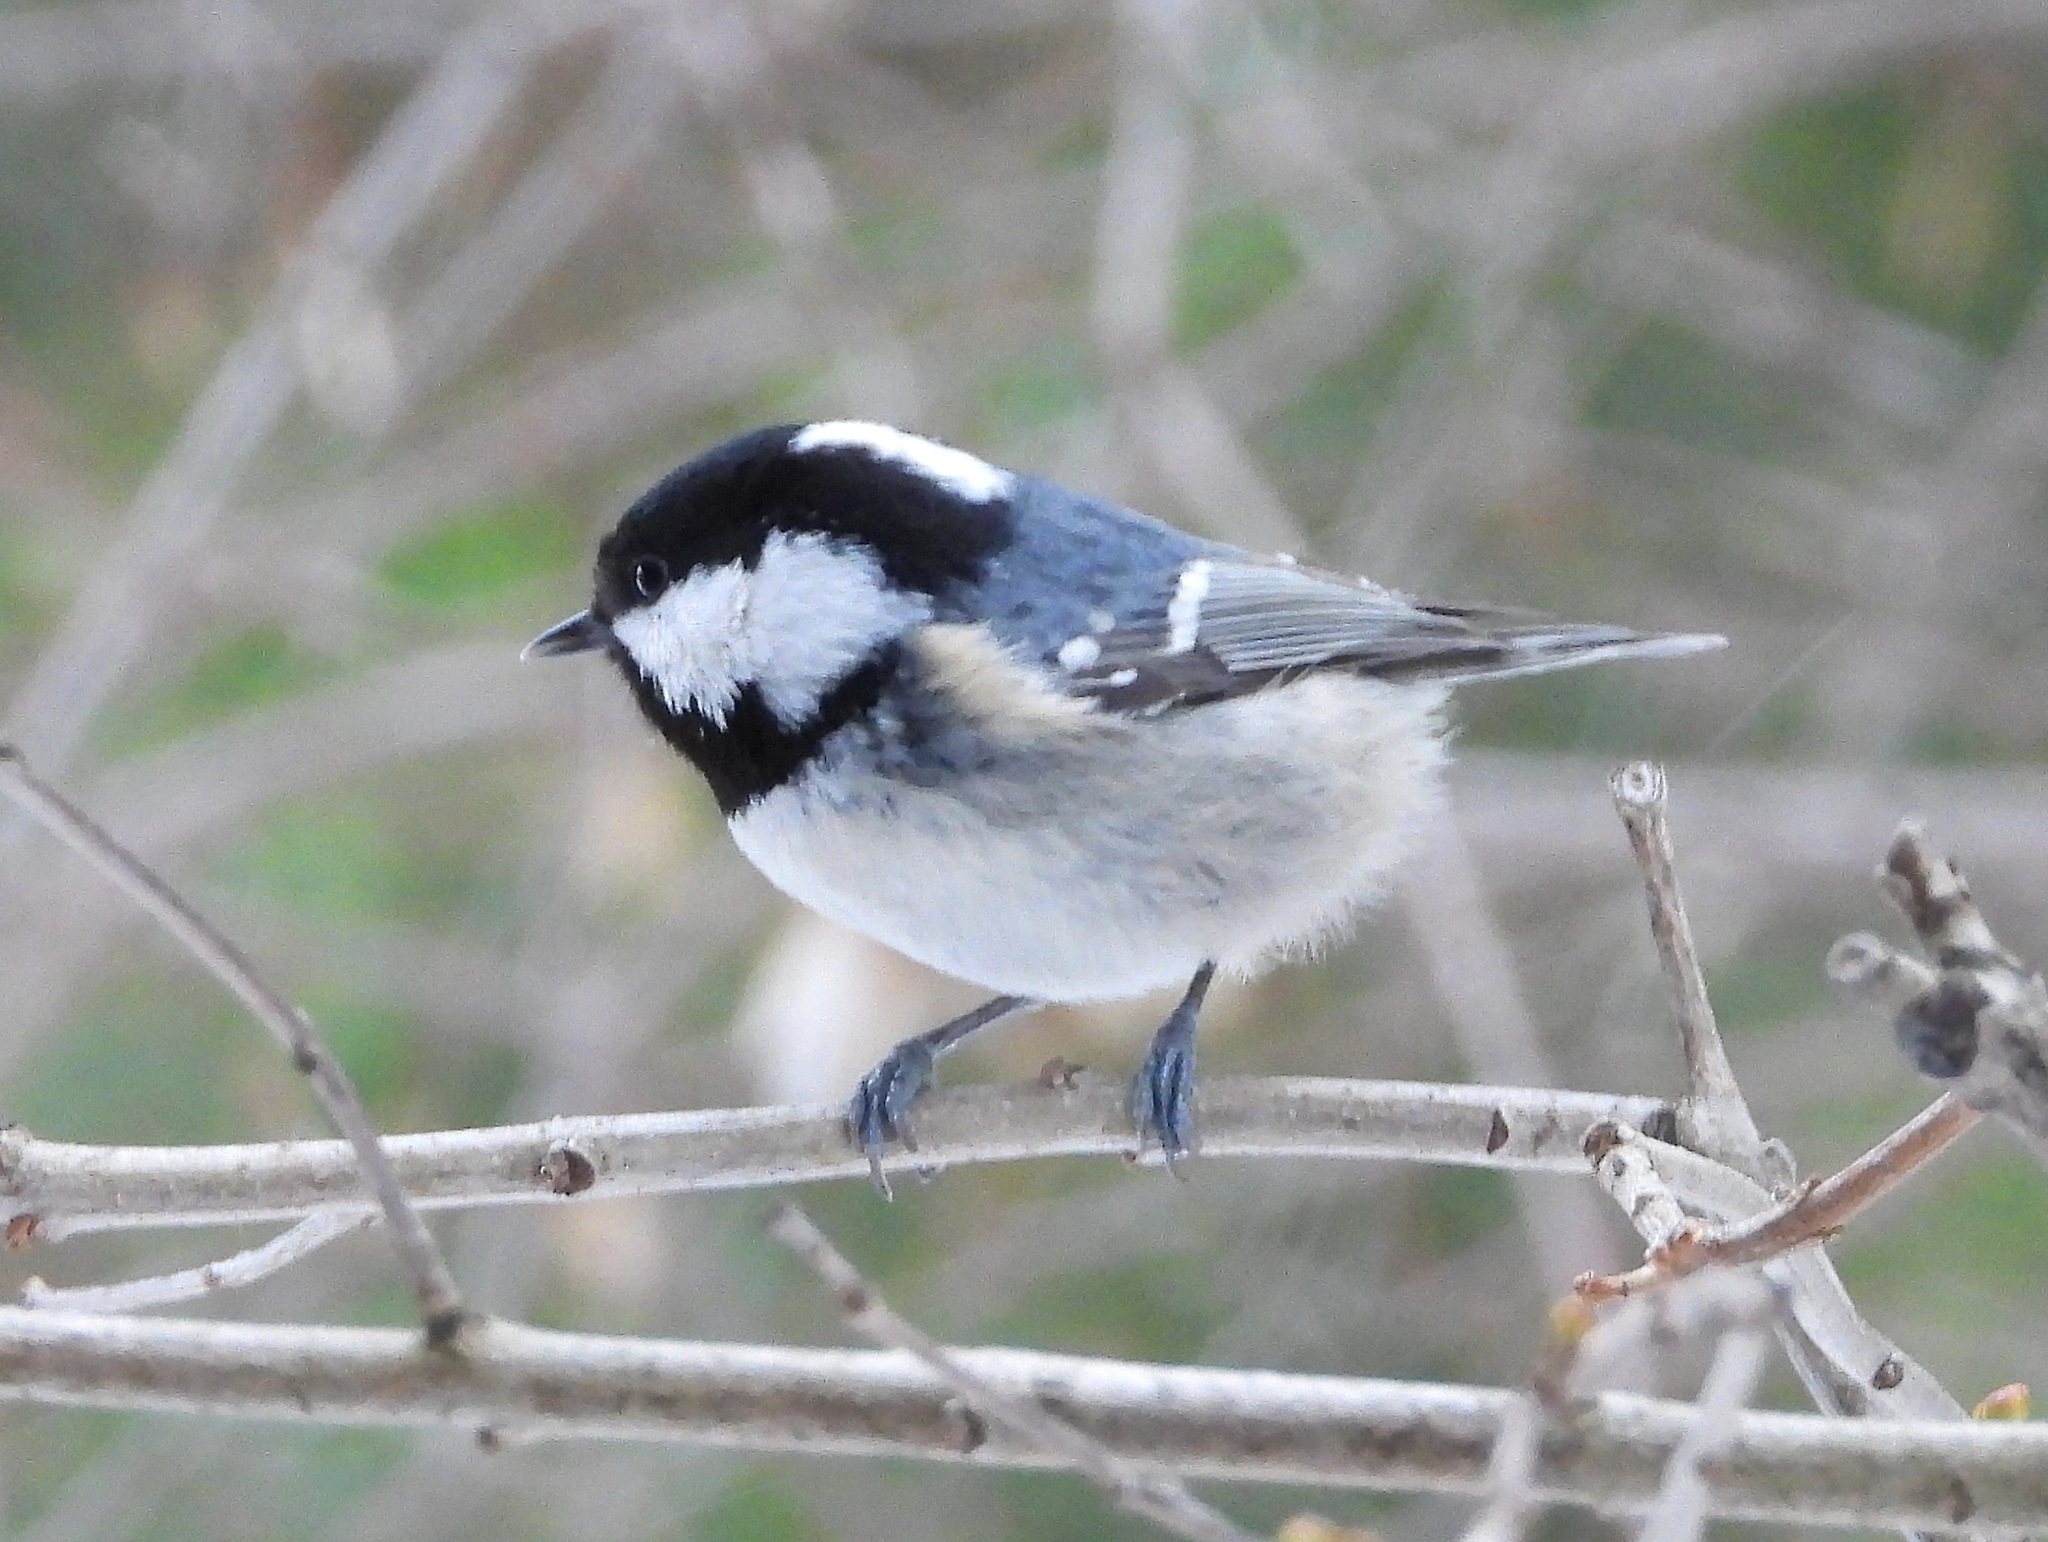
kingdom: Animalia
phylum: Chordata
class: Aves
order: Passeriformes
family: Paridae
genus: Periparus
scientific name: Periparus ater
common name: Coal tit
